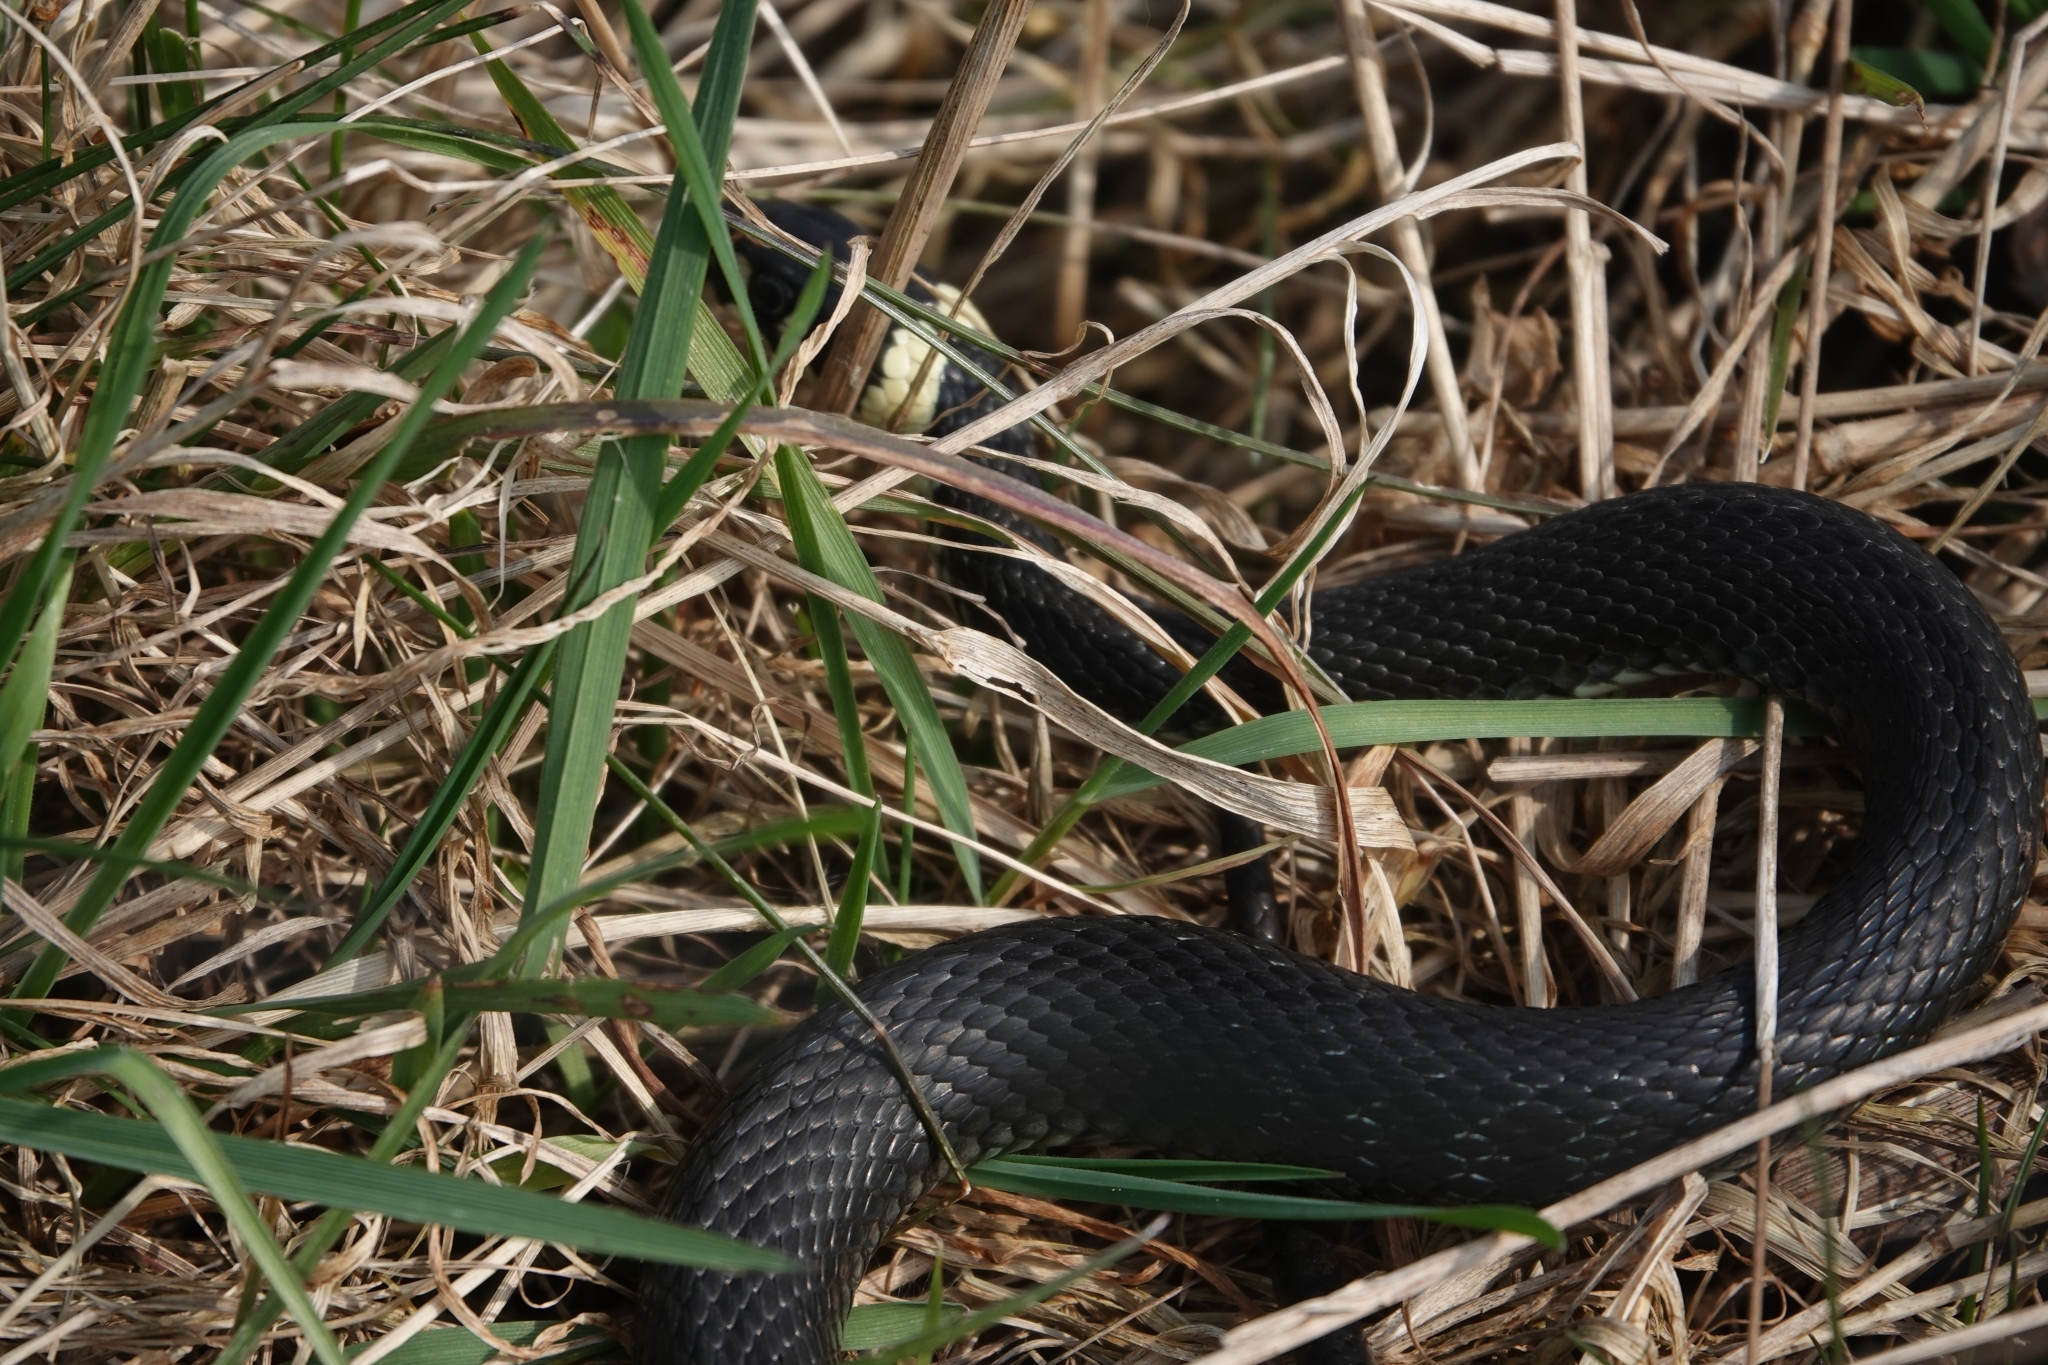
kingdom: Animalia
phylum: Chordata
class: Squamata
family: Colubridae
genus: Natrix
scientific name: Natrix natrix
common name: Grass snake
